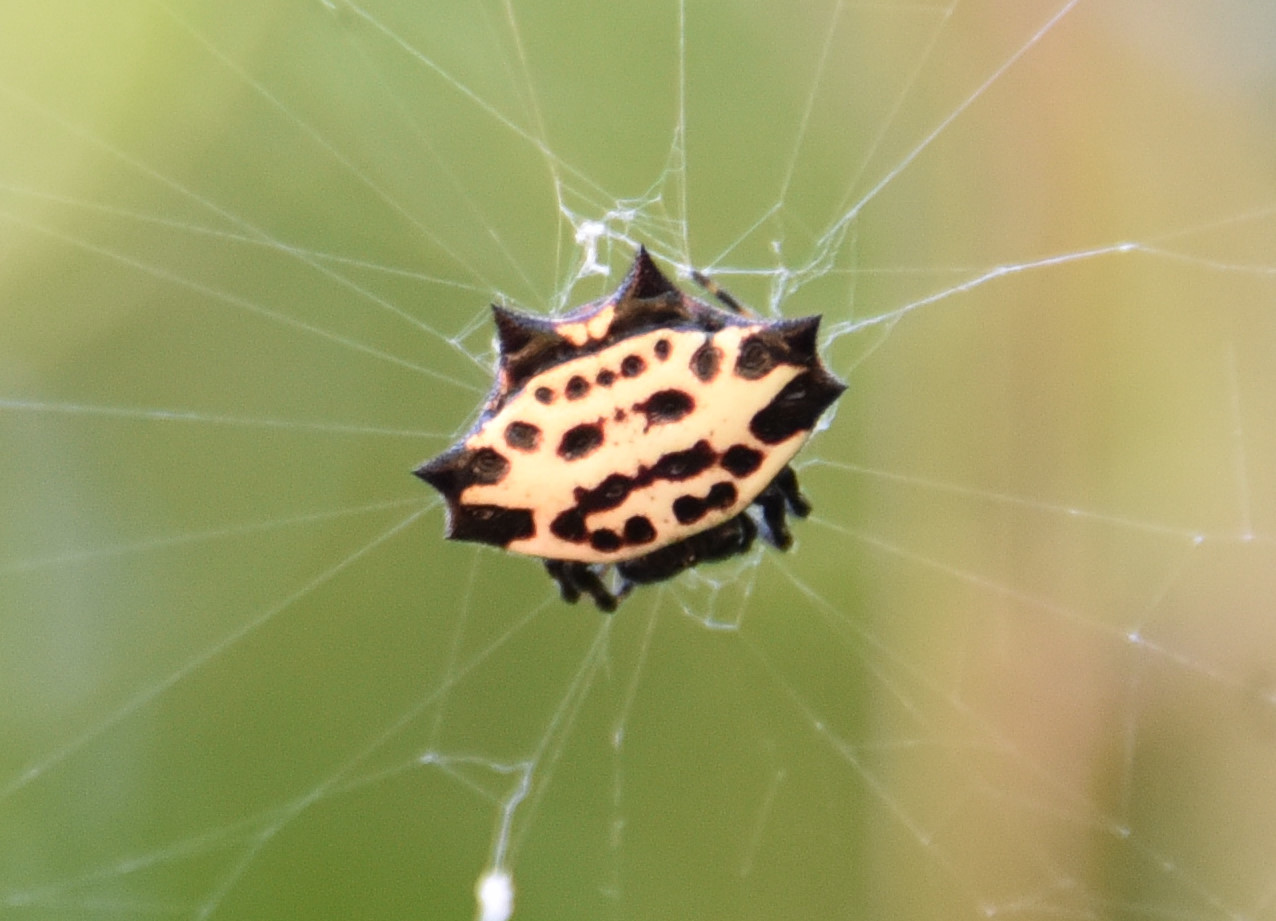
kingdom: Animalia
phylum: Arthropoda
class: Arachnida
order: Araneae
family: Araneidae
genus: Gasteracantha
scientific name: Gasteracantha cancriformis
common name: Orb weavers
